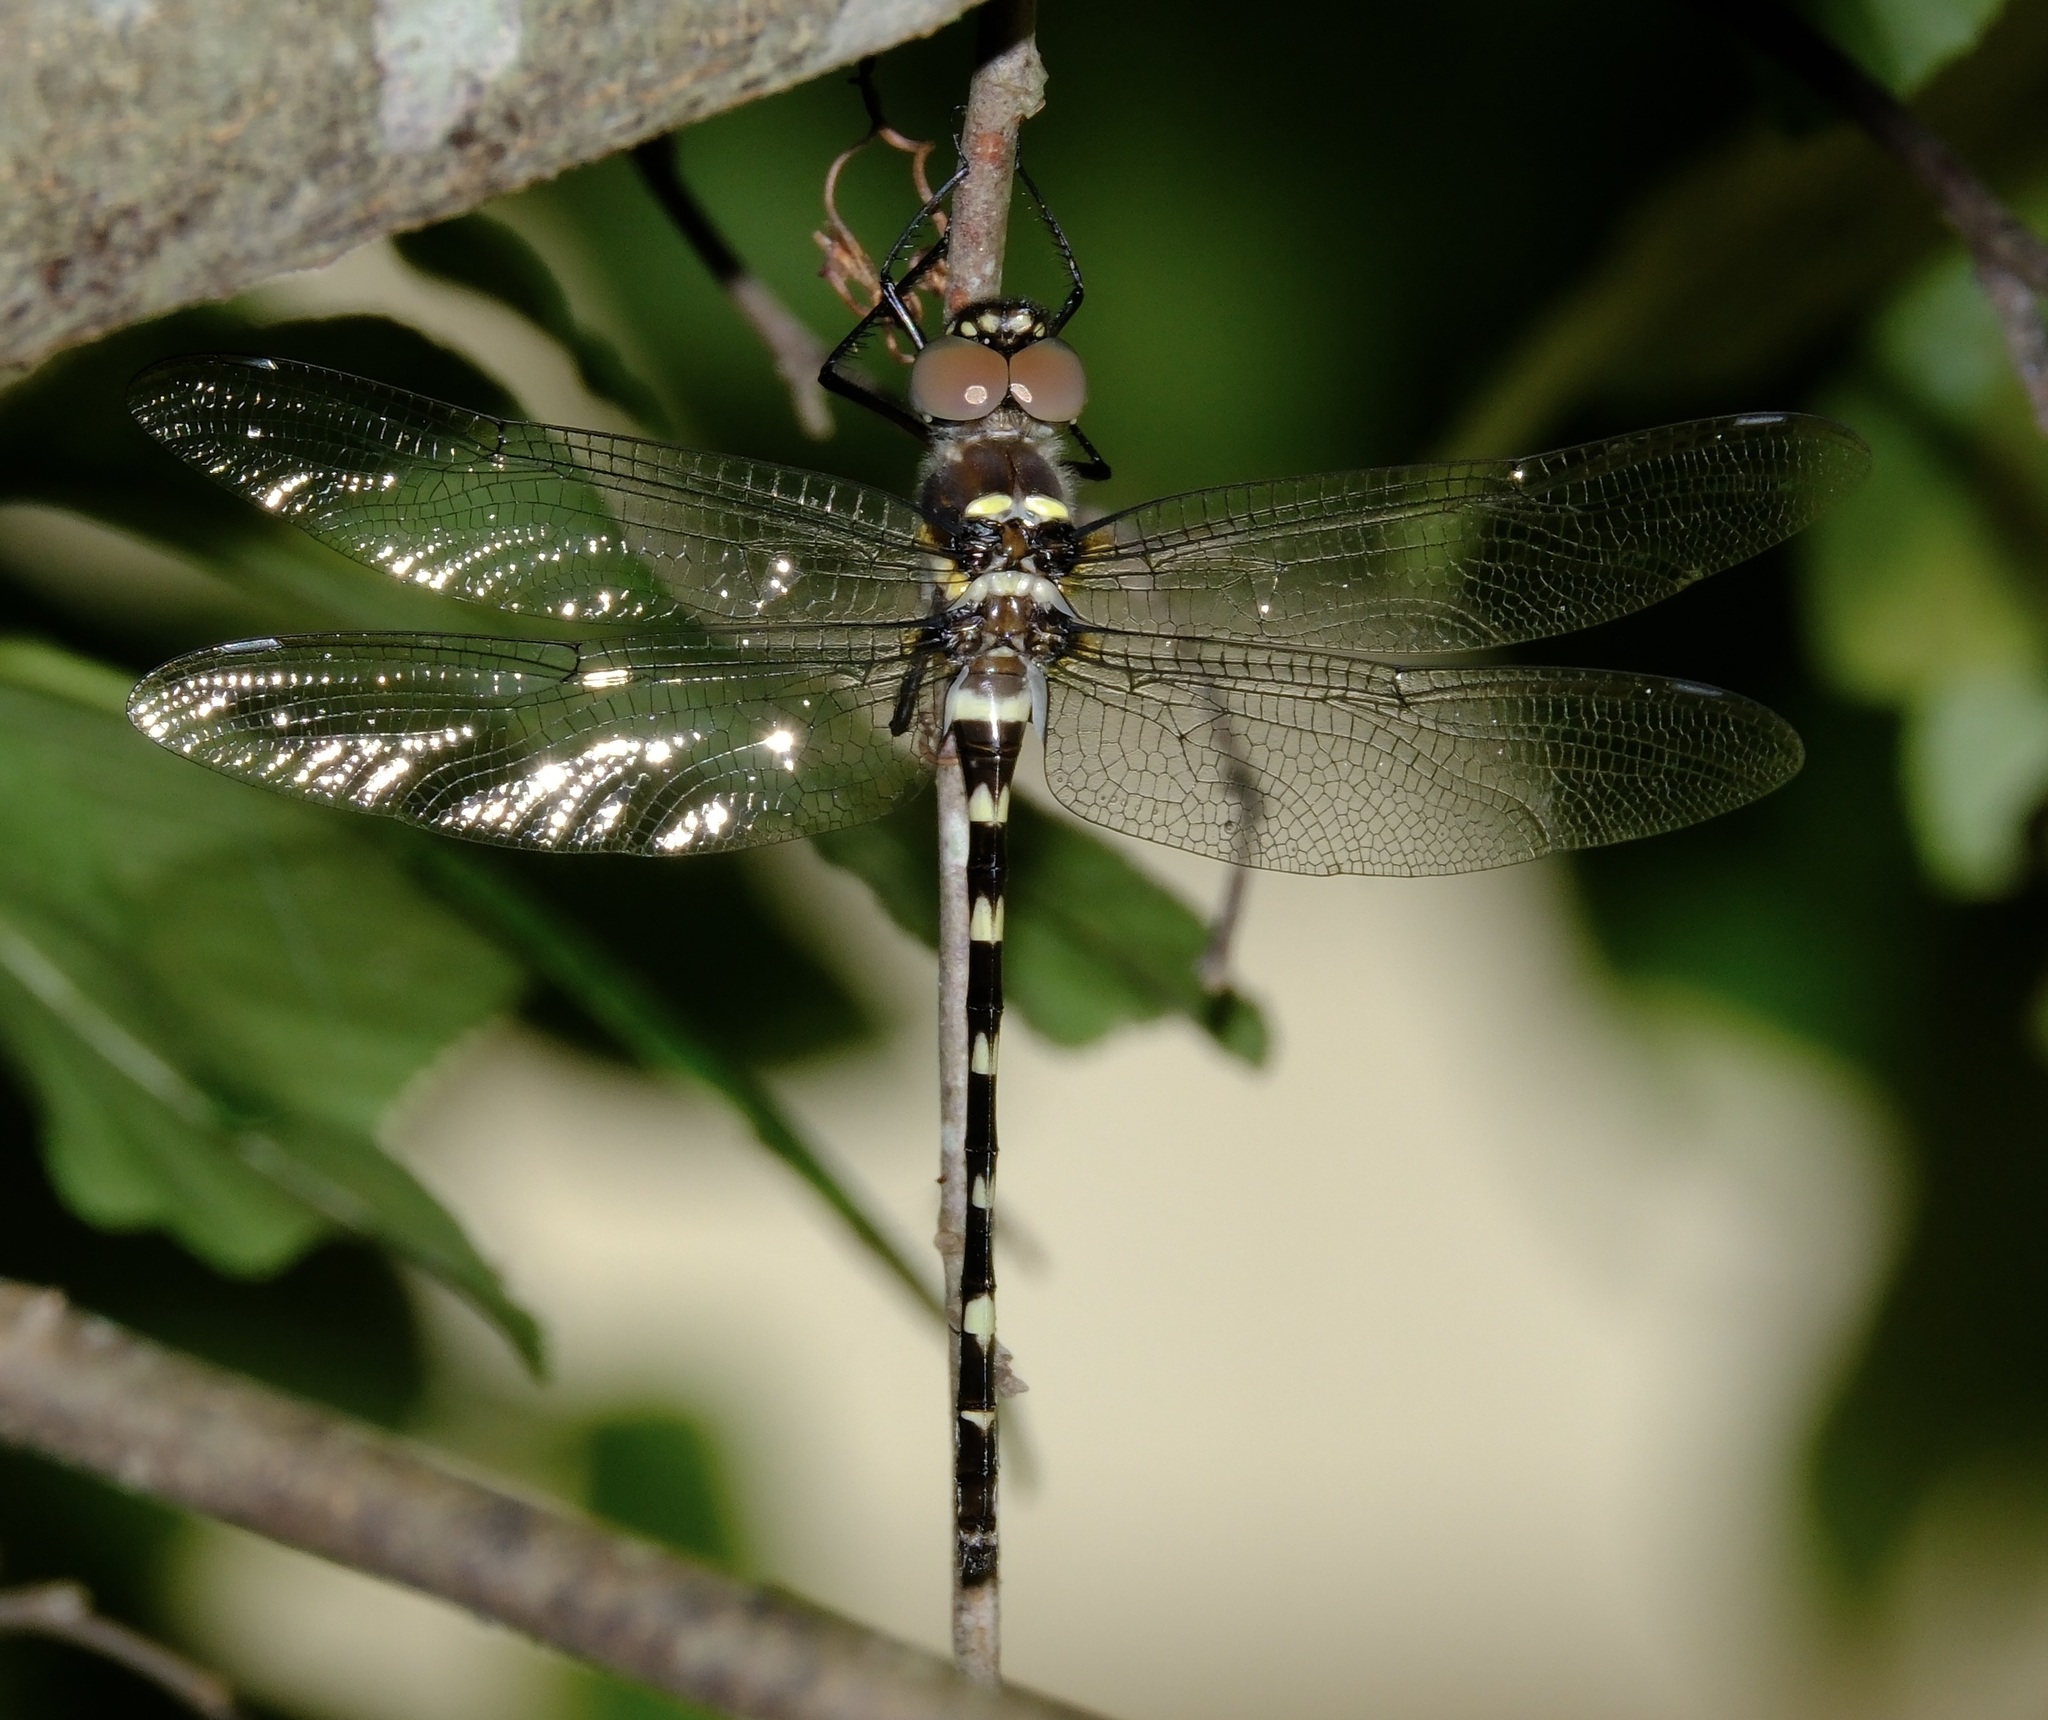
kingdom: Animalia
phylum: Arthropoda
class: Insecta
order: Odonata
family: Macromiidae
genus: Macromia
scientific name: Macromia illinoiensis
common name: Swift river cruiser
